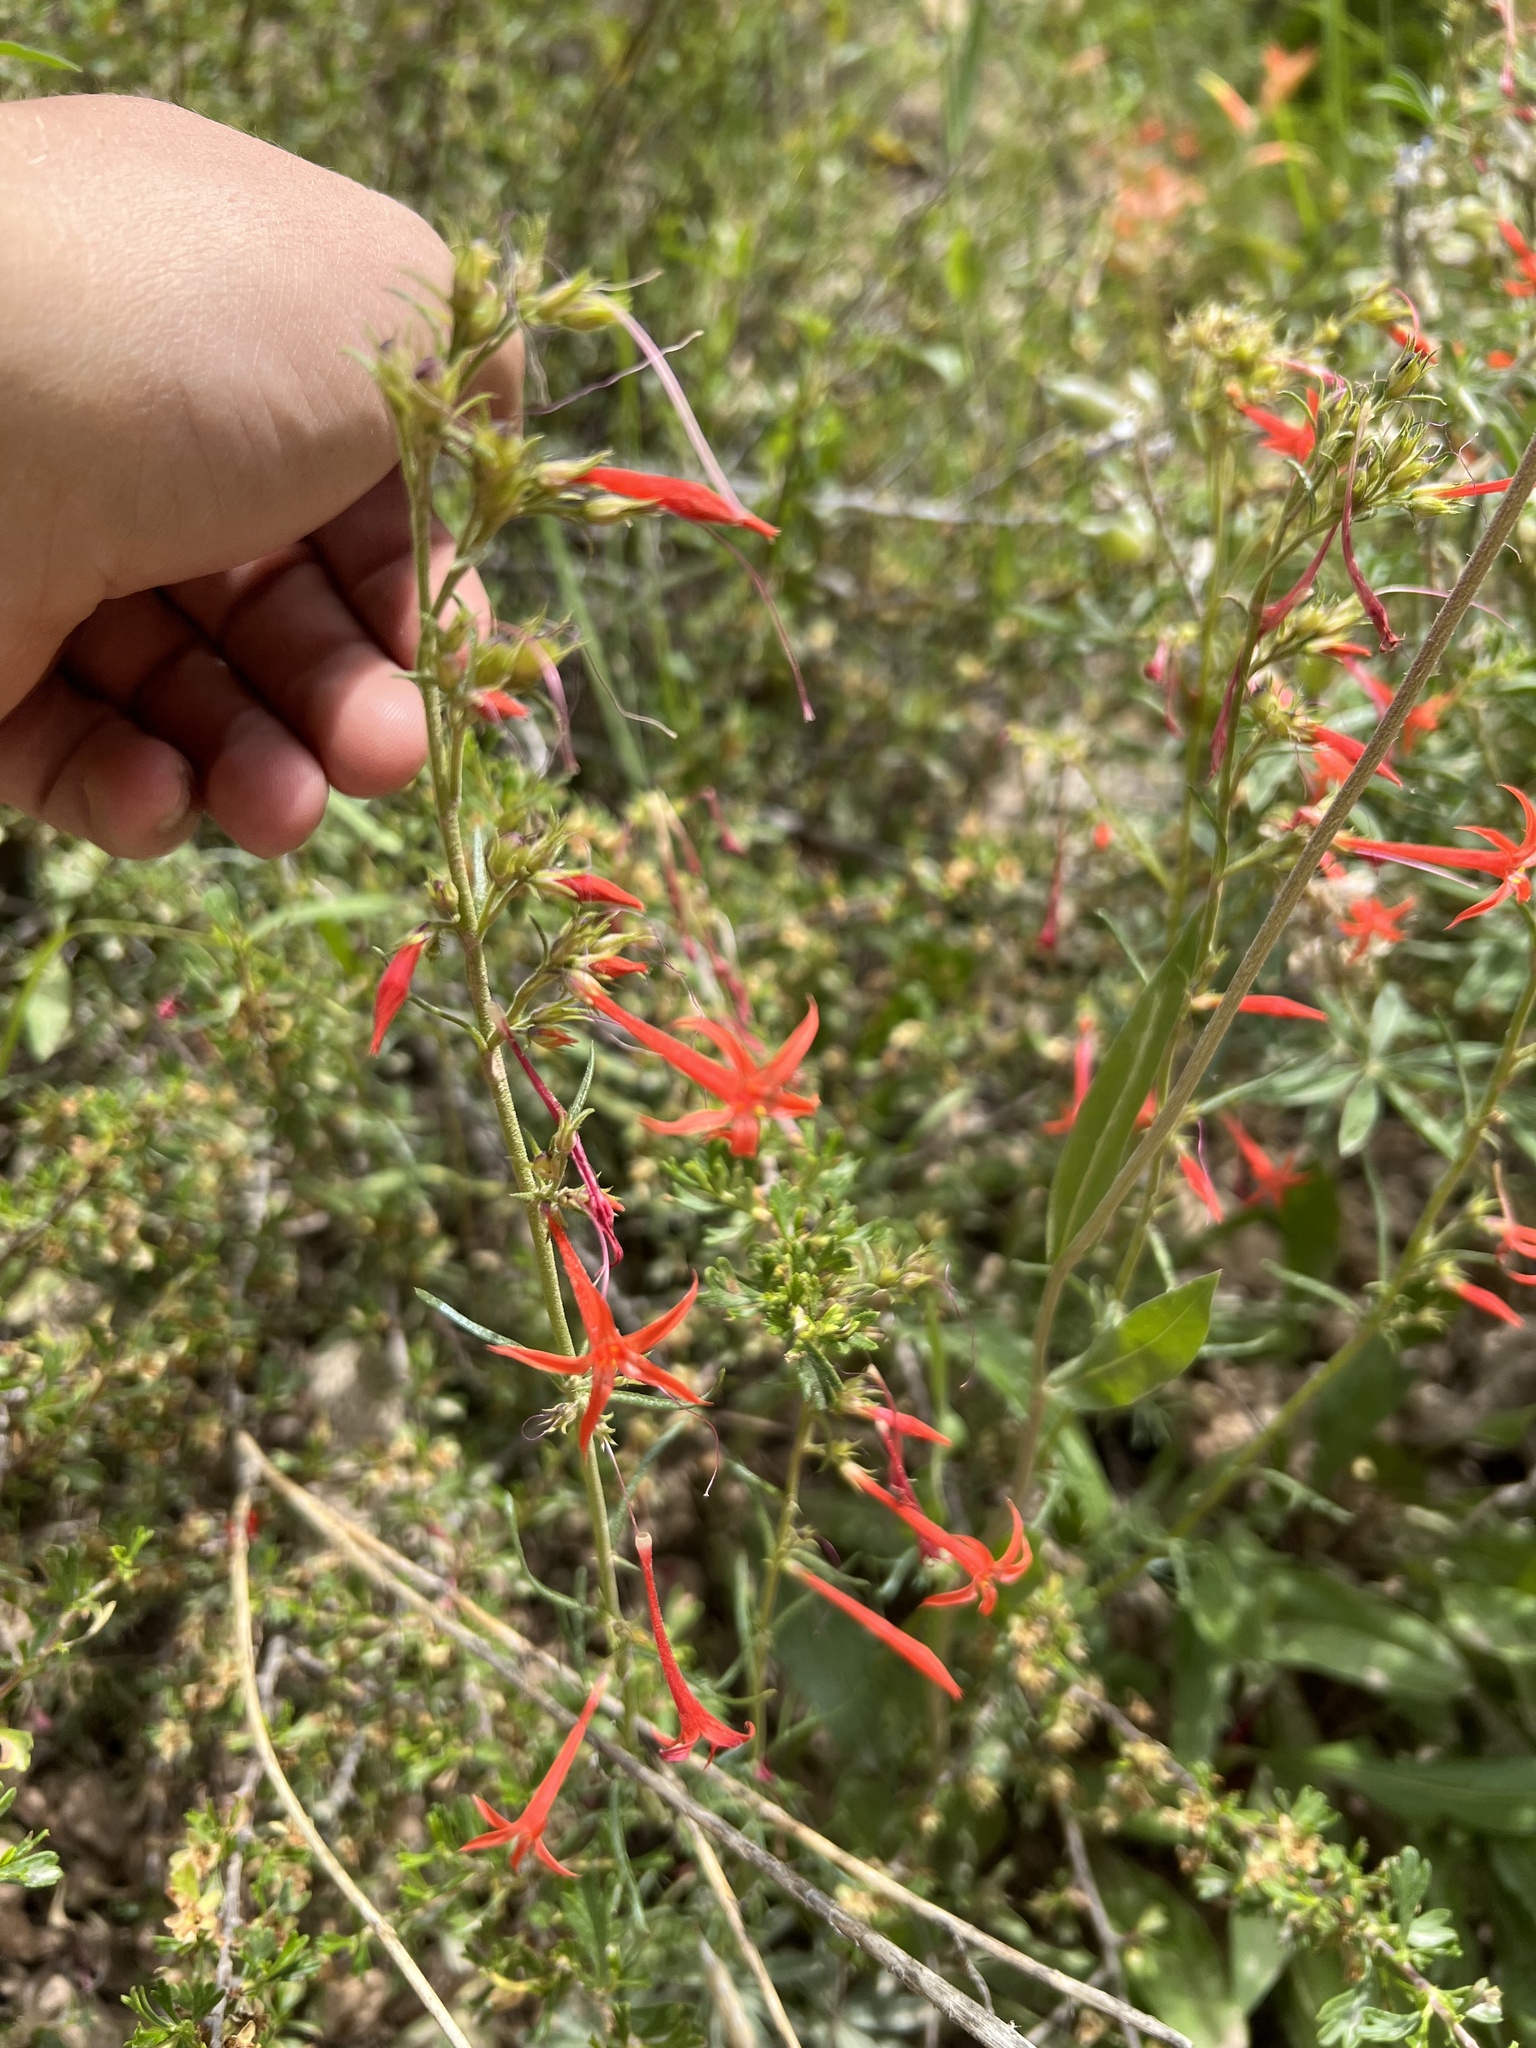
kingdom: Plantae
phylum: Tracheophyta
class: Magnoliopsida
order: Ericales
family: Polemoniaceae
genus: Ipomopsis
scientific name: Ipomopsis aggregata
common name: Scarlet gilia
